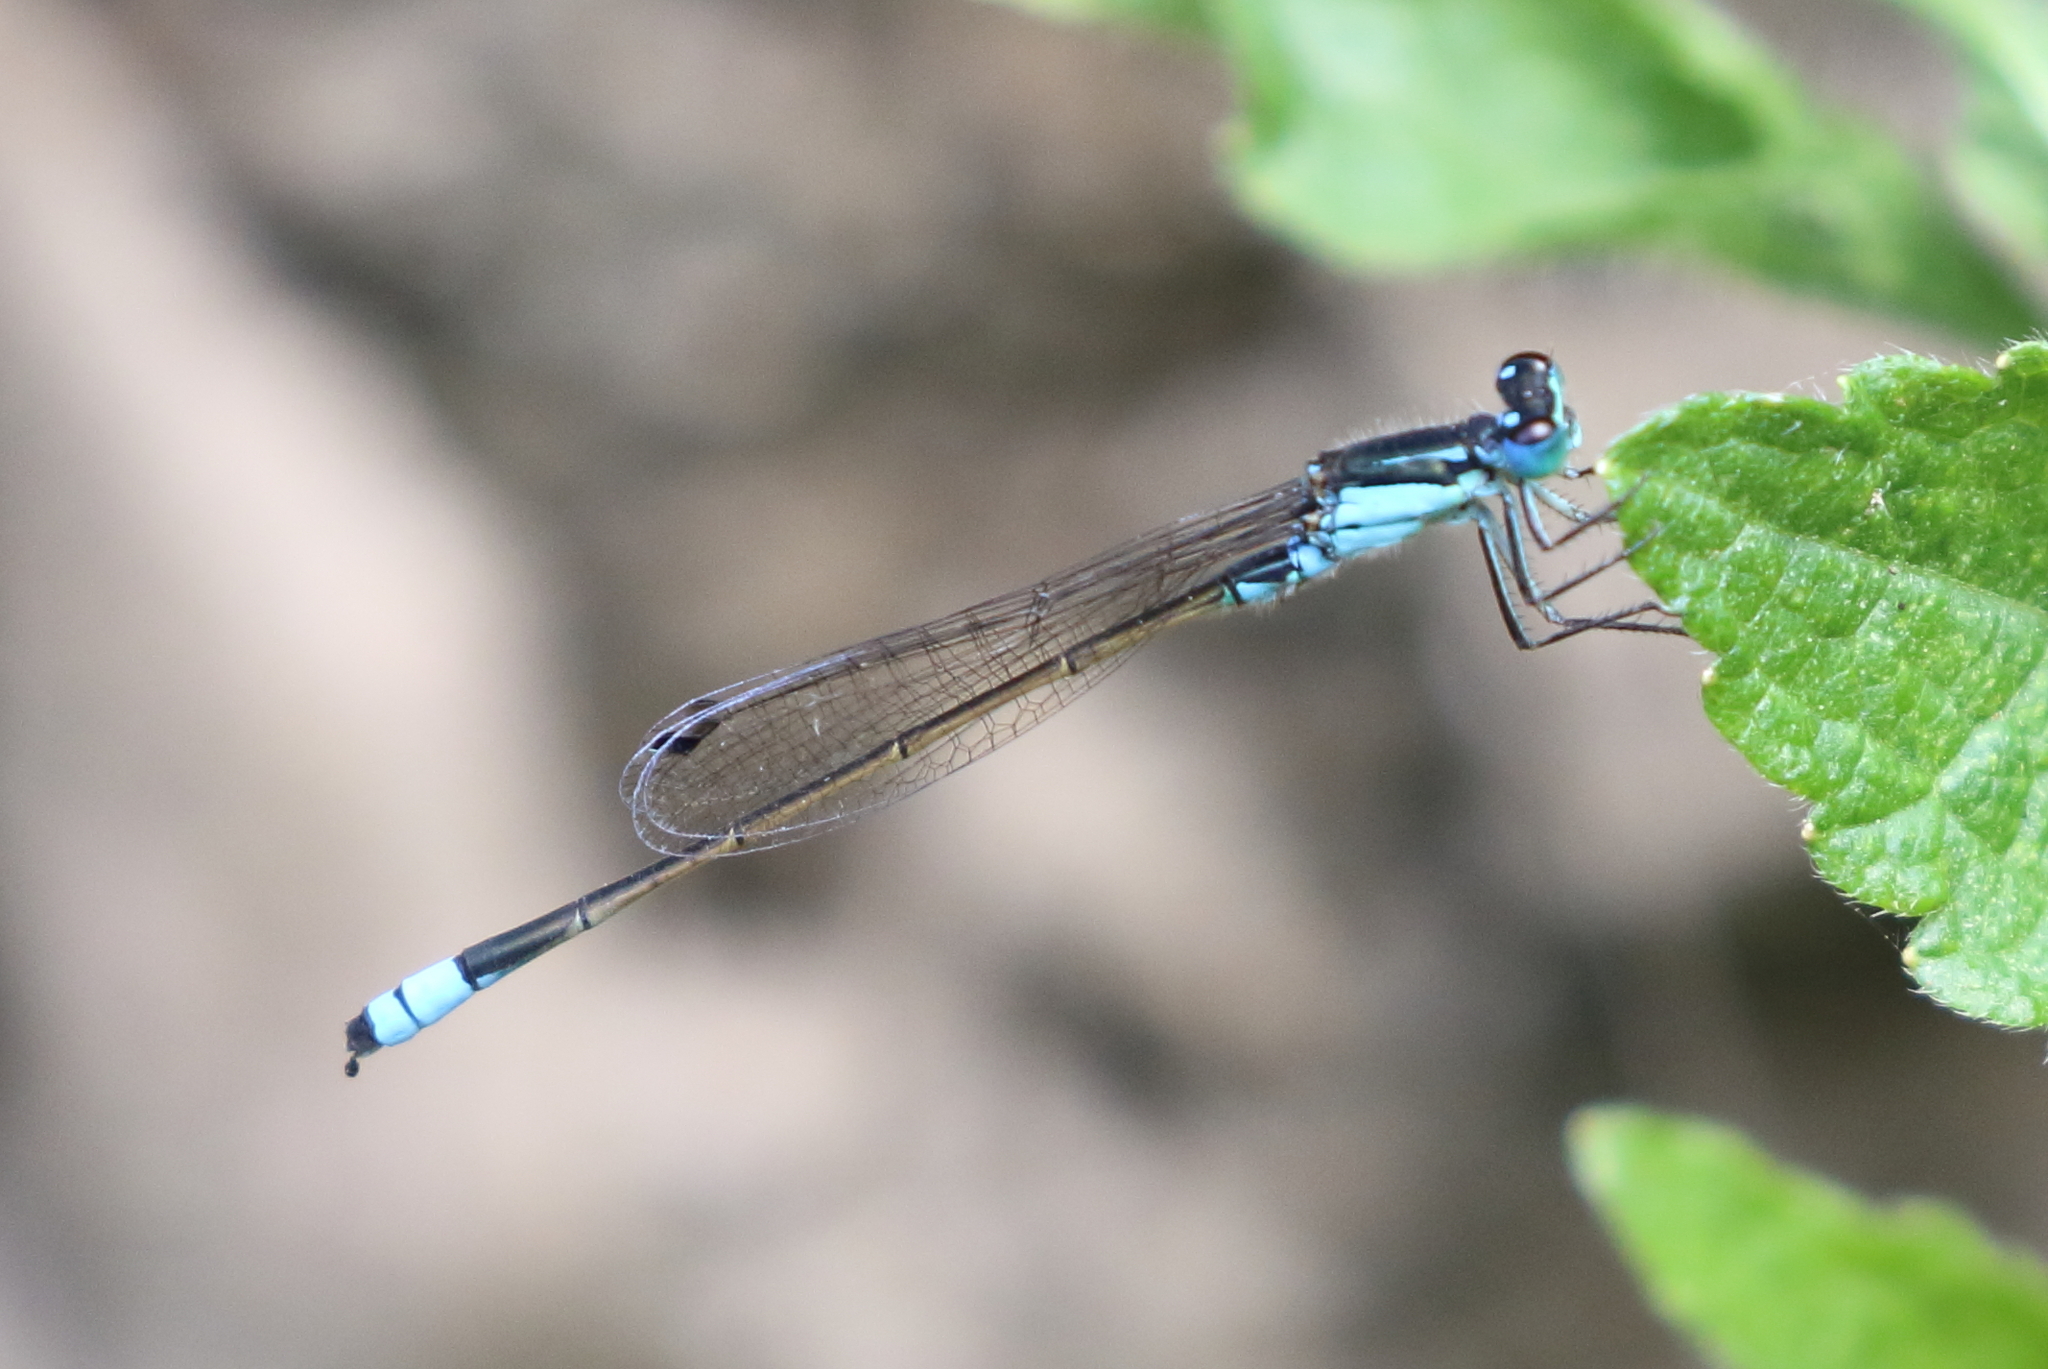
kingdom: Animalia
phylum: Arthropoda
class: Insecta
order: Odonata
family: Coenagrionidae
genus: Ischnura
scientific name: Ischnura heterosticta
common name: Common bluetail
